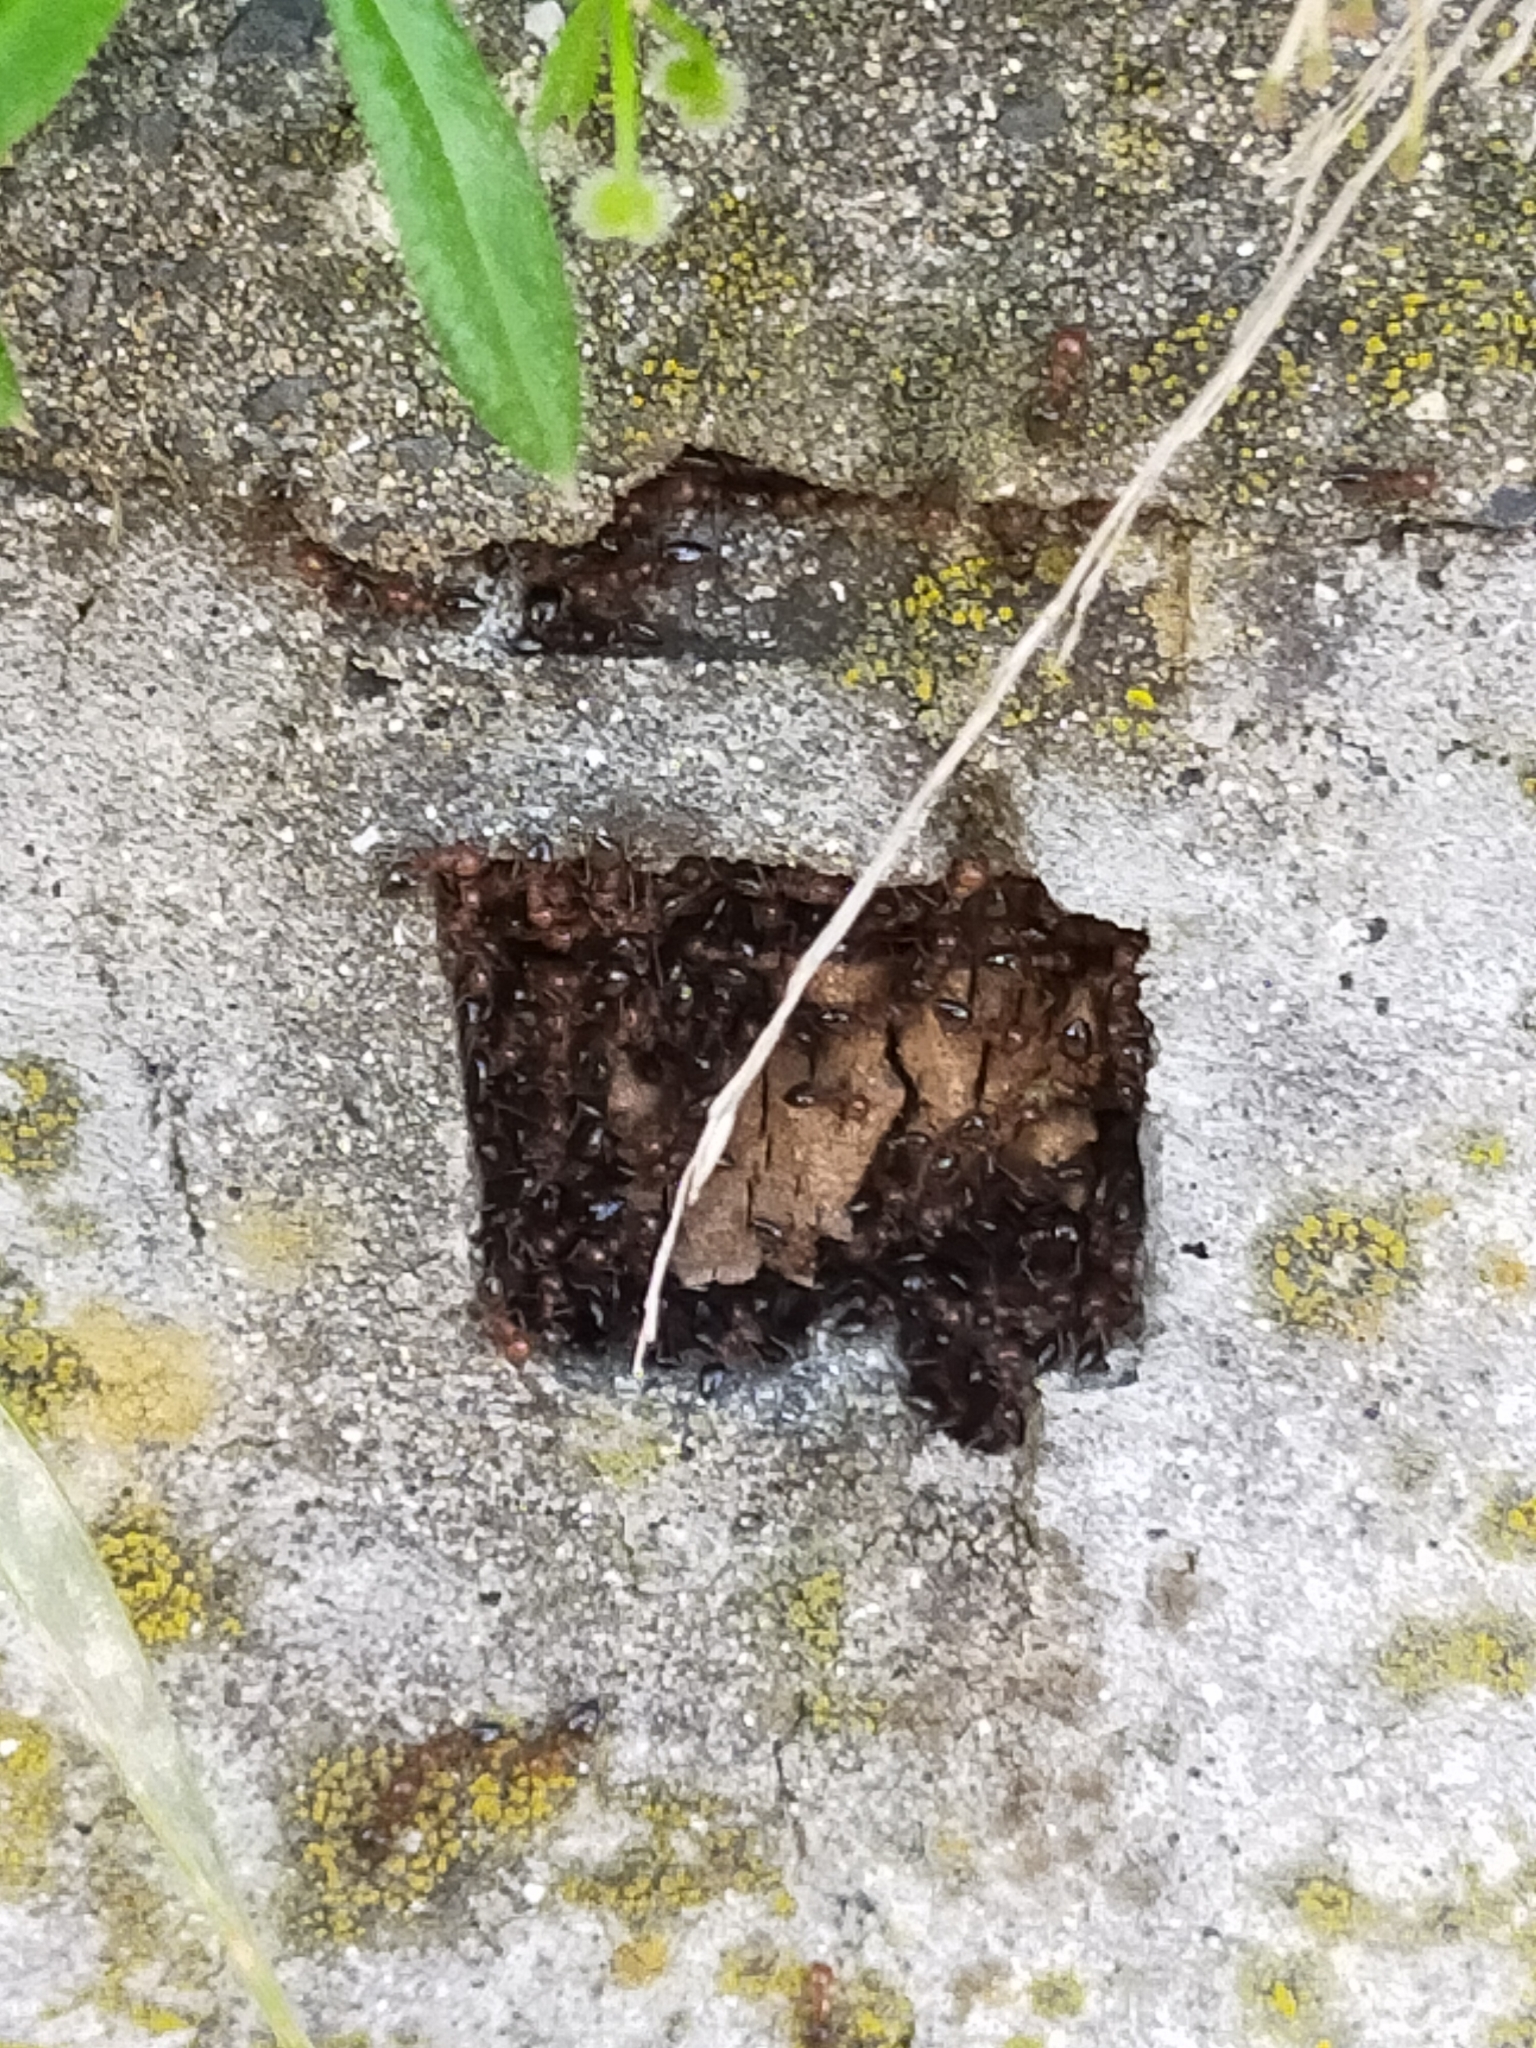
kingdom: Animalia
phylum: Arthropoda
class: Insecta
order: Hymenoptera
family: Formicidae
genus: Crematogaster
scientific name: Crematogaster
